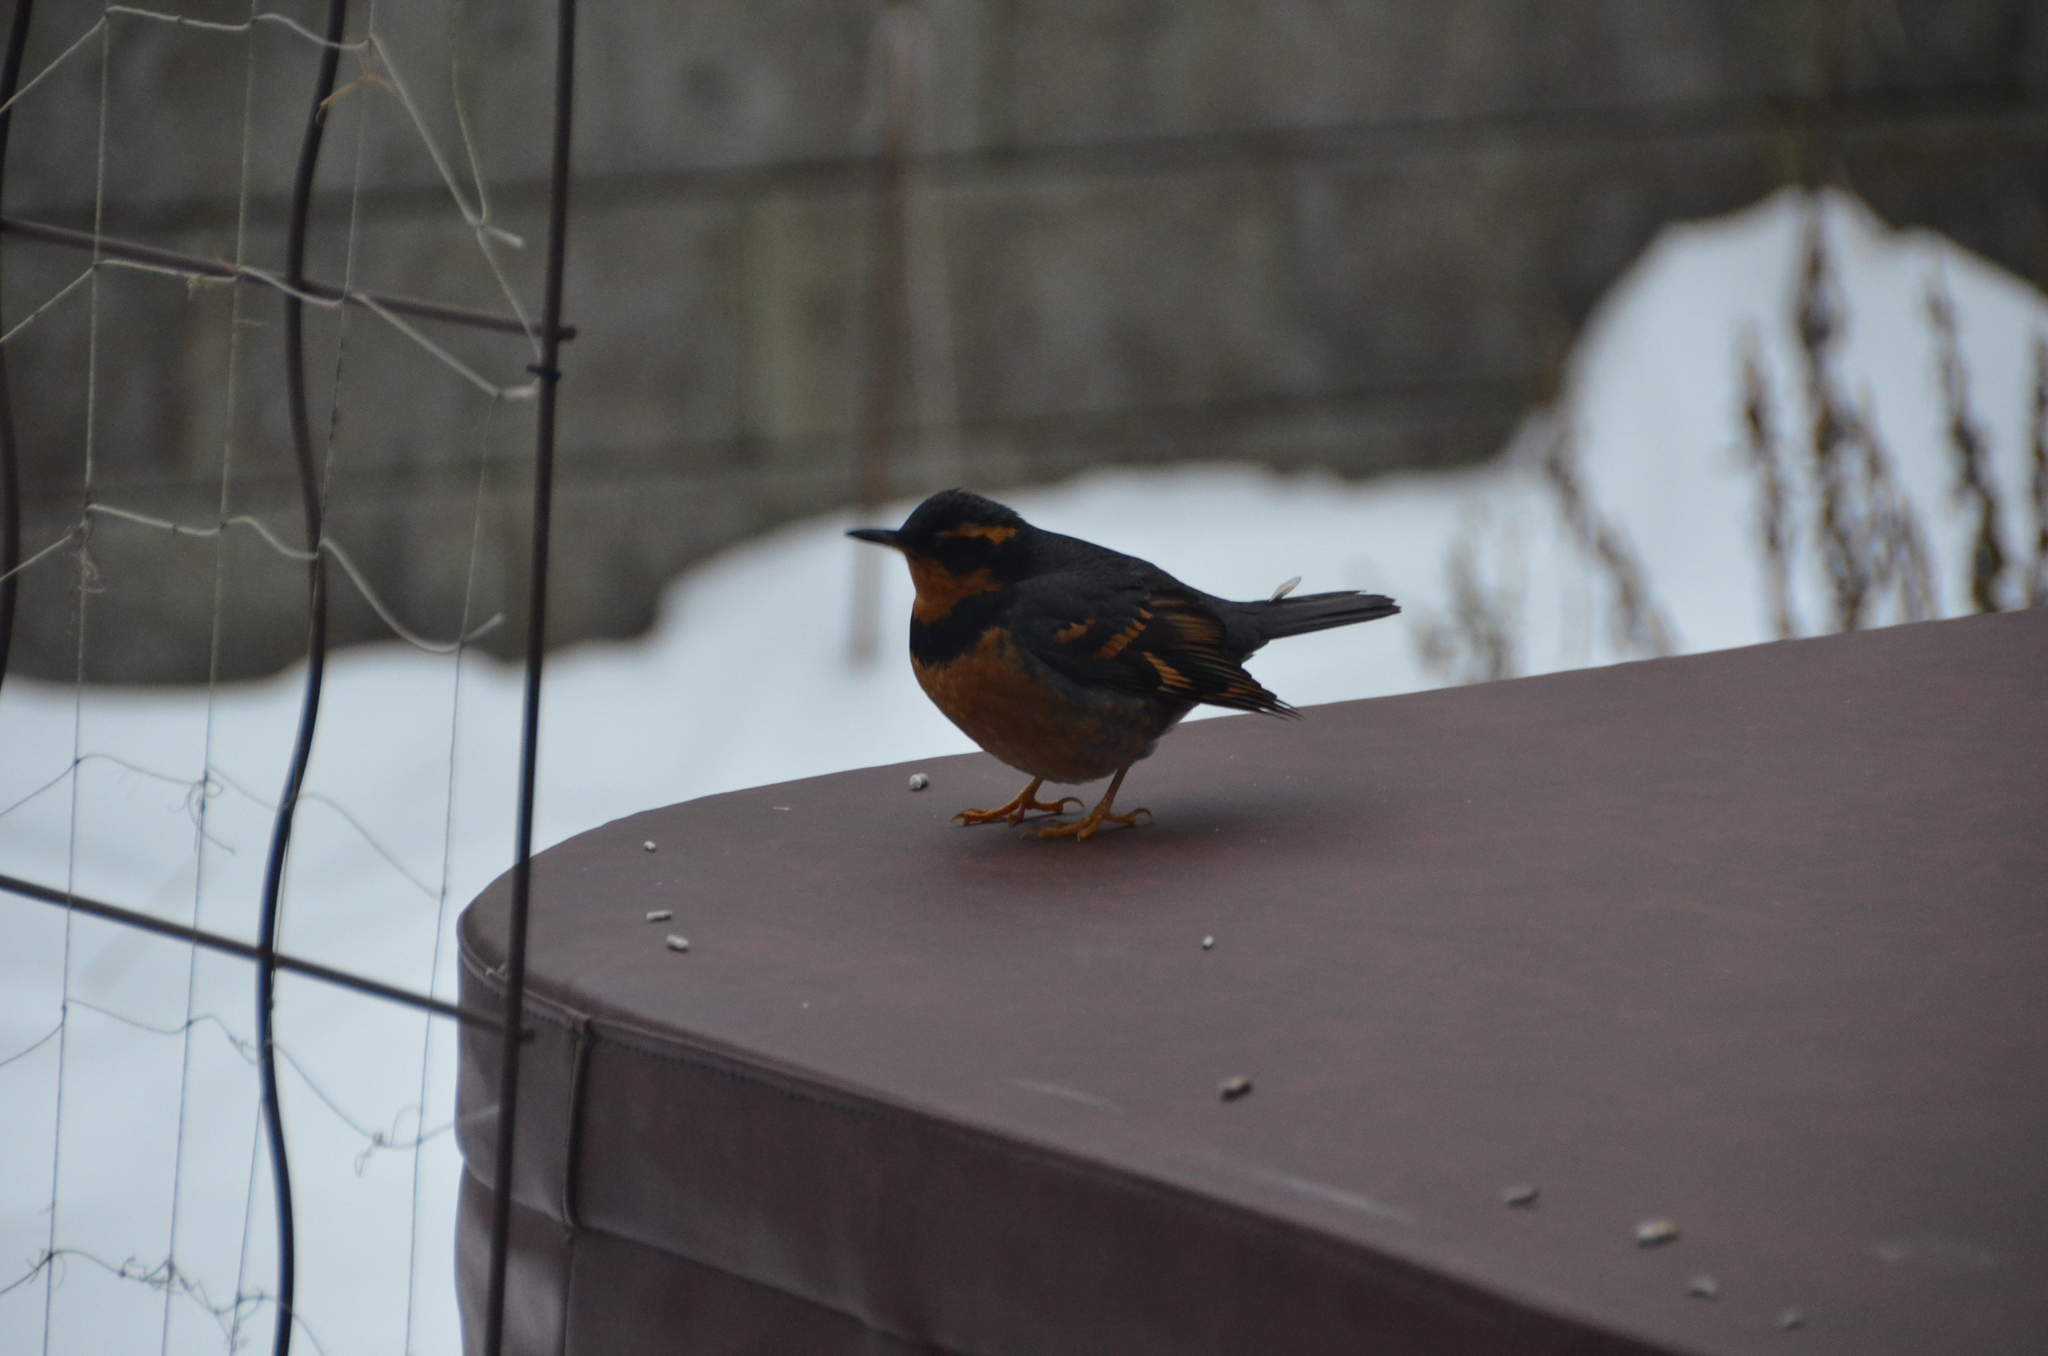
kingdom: Animalia
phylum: Chordata
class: Aves
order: Passeriformes
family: Turdidae
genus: Ixoreus
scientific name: Ixoreus naevius
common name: Varied thrush
